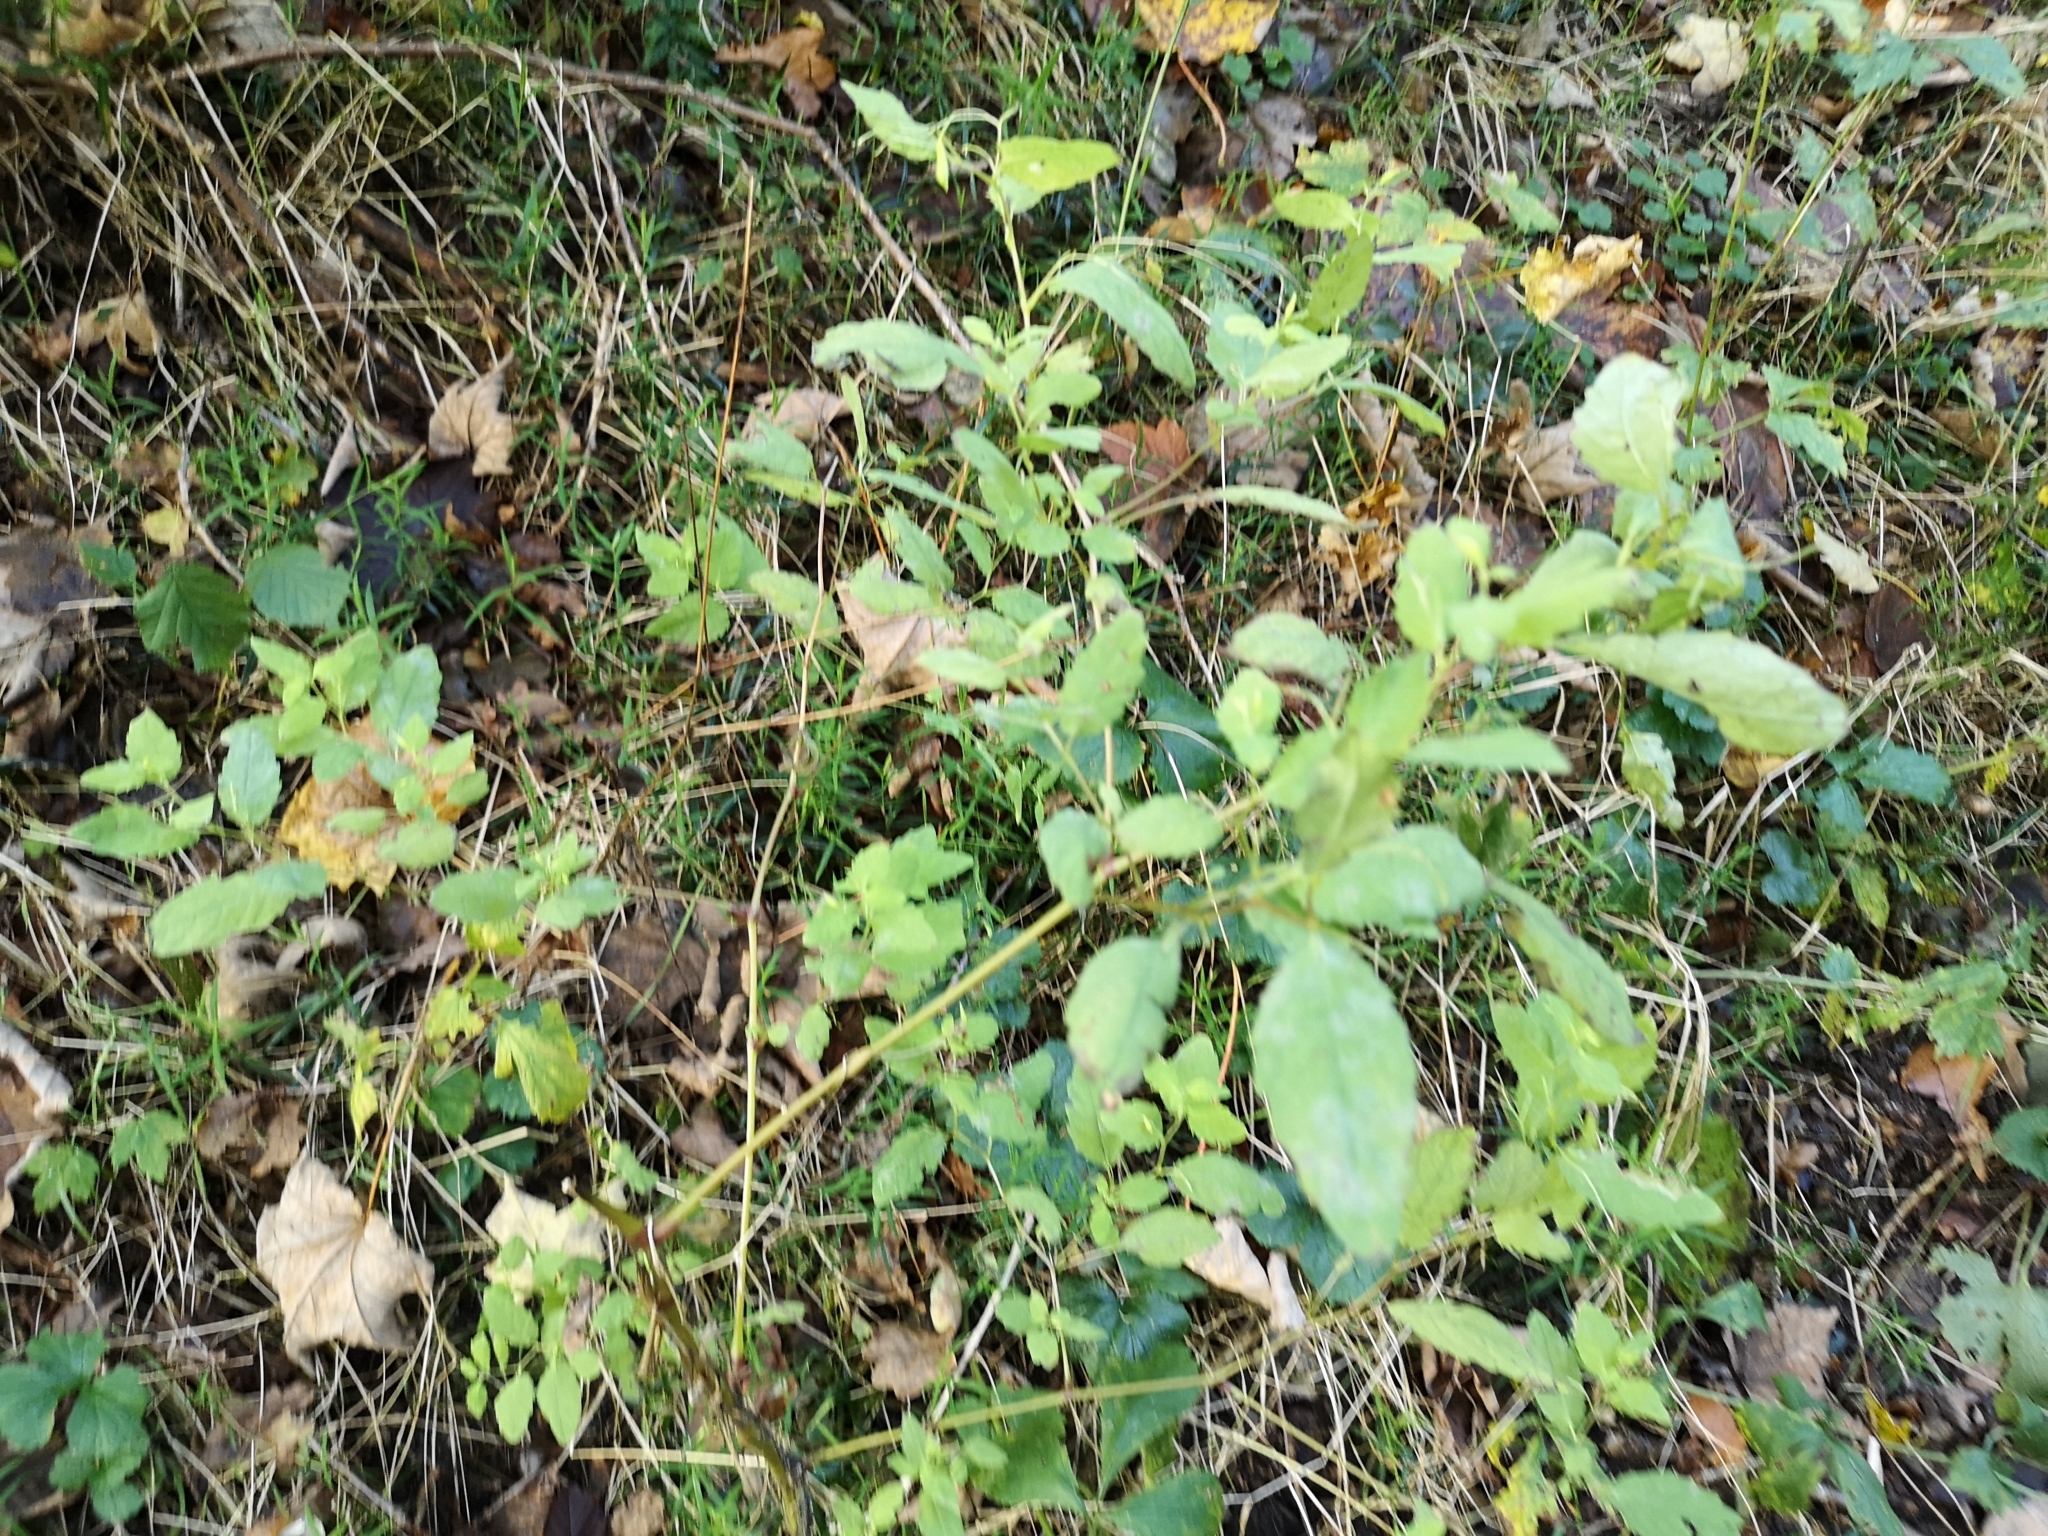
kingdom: Plantae
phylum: Tracheophyta
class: Magnoliopsida
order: Ericales
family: Balsaminaceae
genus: Impatiens
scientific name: Impatiens noli-tangere
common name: Touch-me-not balsam
